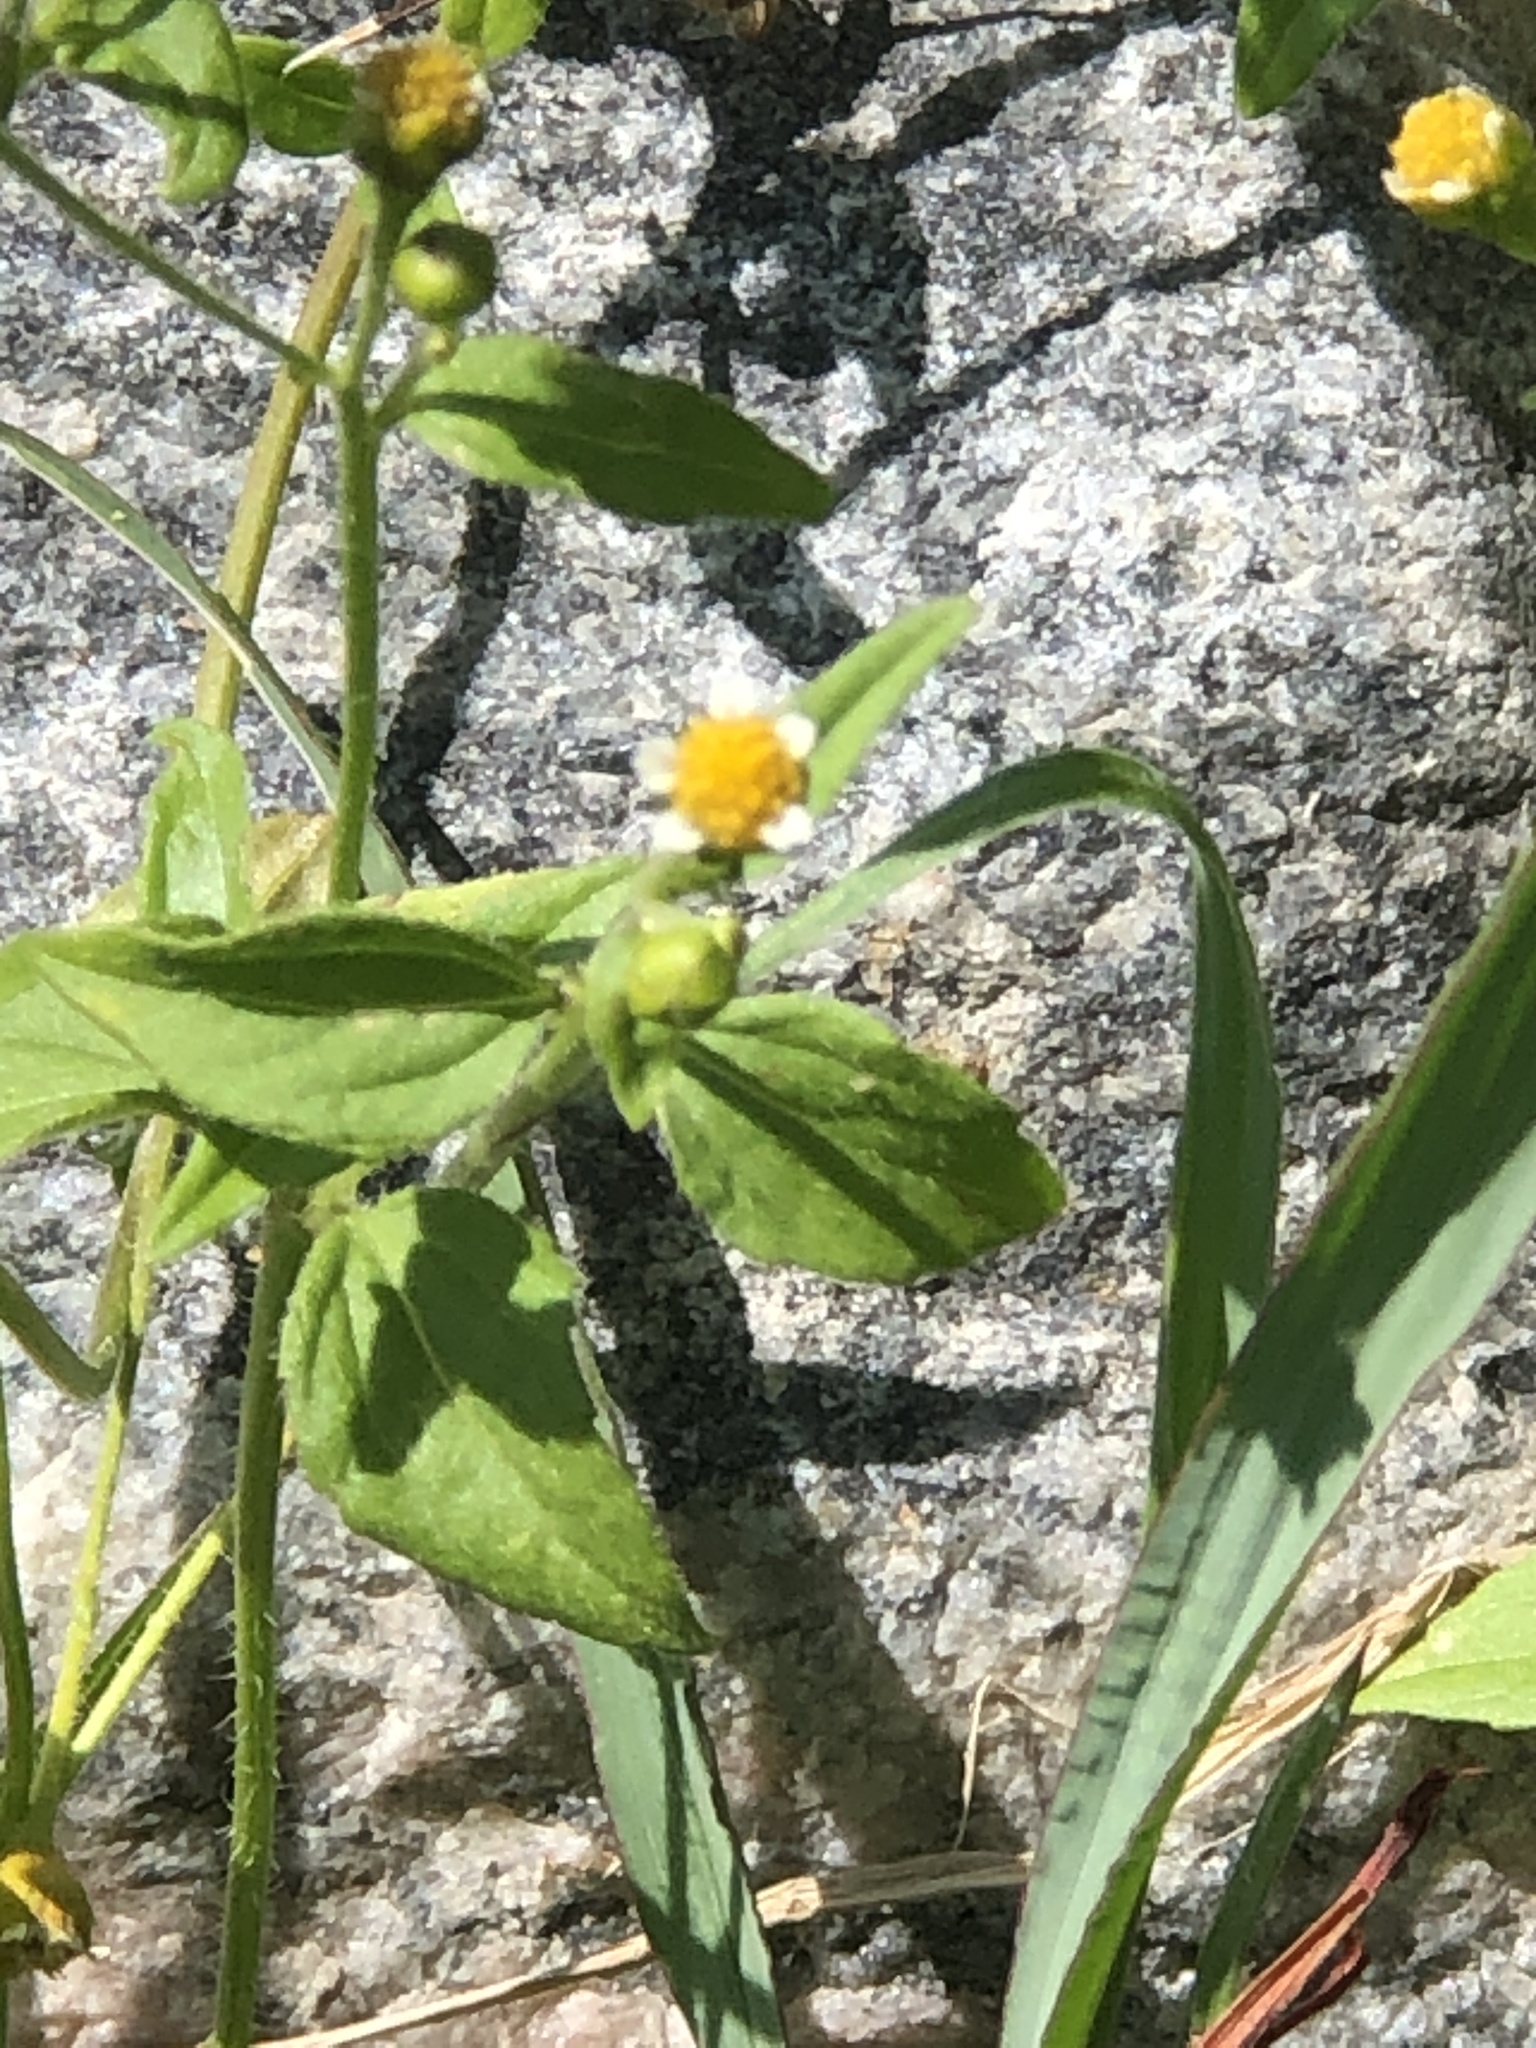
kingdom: Plantae
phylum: Tracheophyta
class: Magnoliopsida
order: Asterales
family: Asteraceae
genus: Galinsoga
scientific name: Galinsoga parviflora
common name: Gallant soldier
